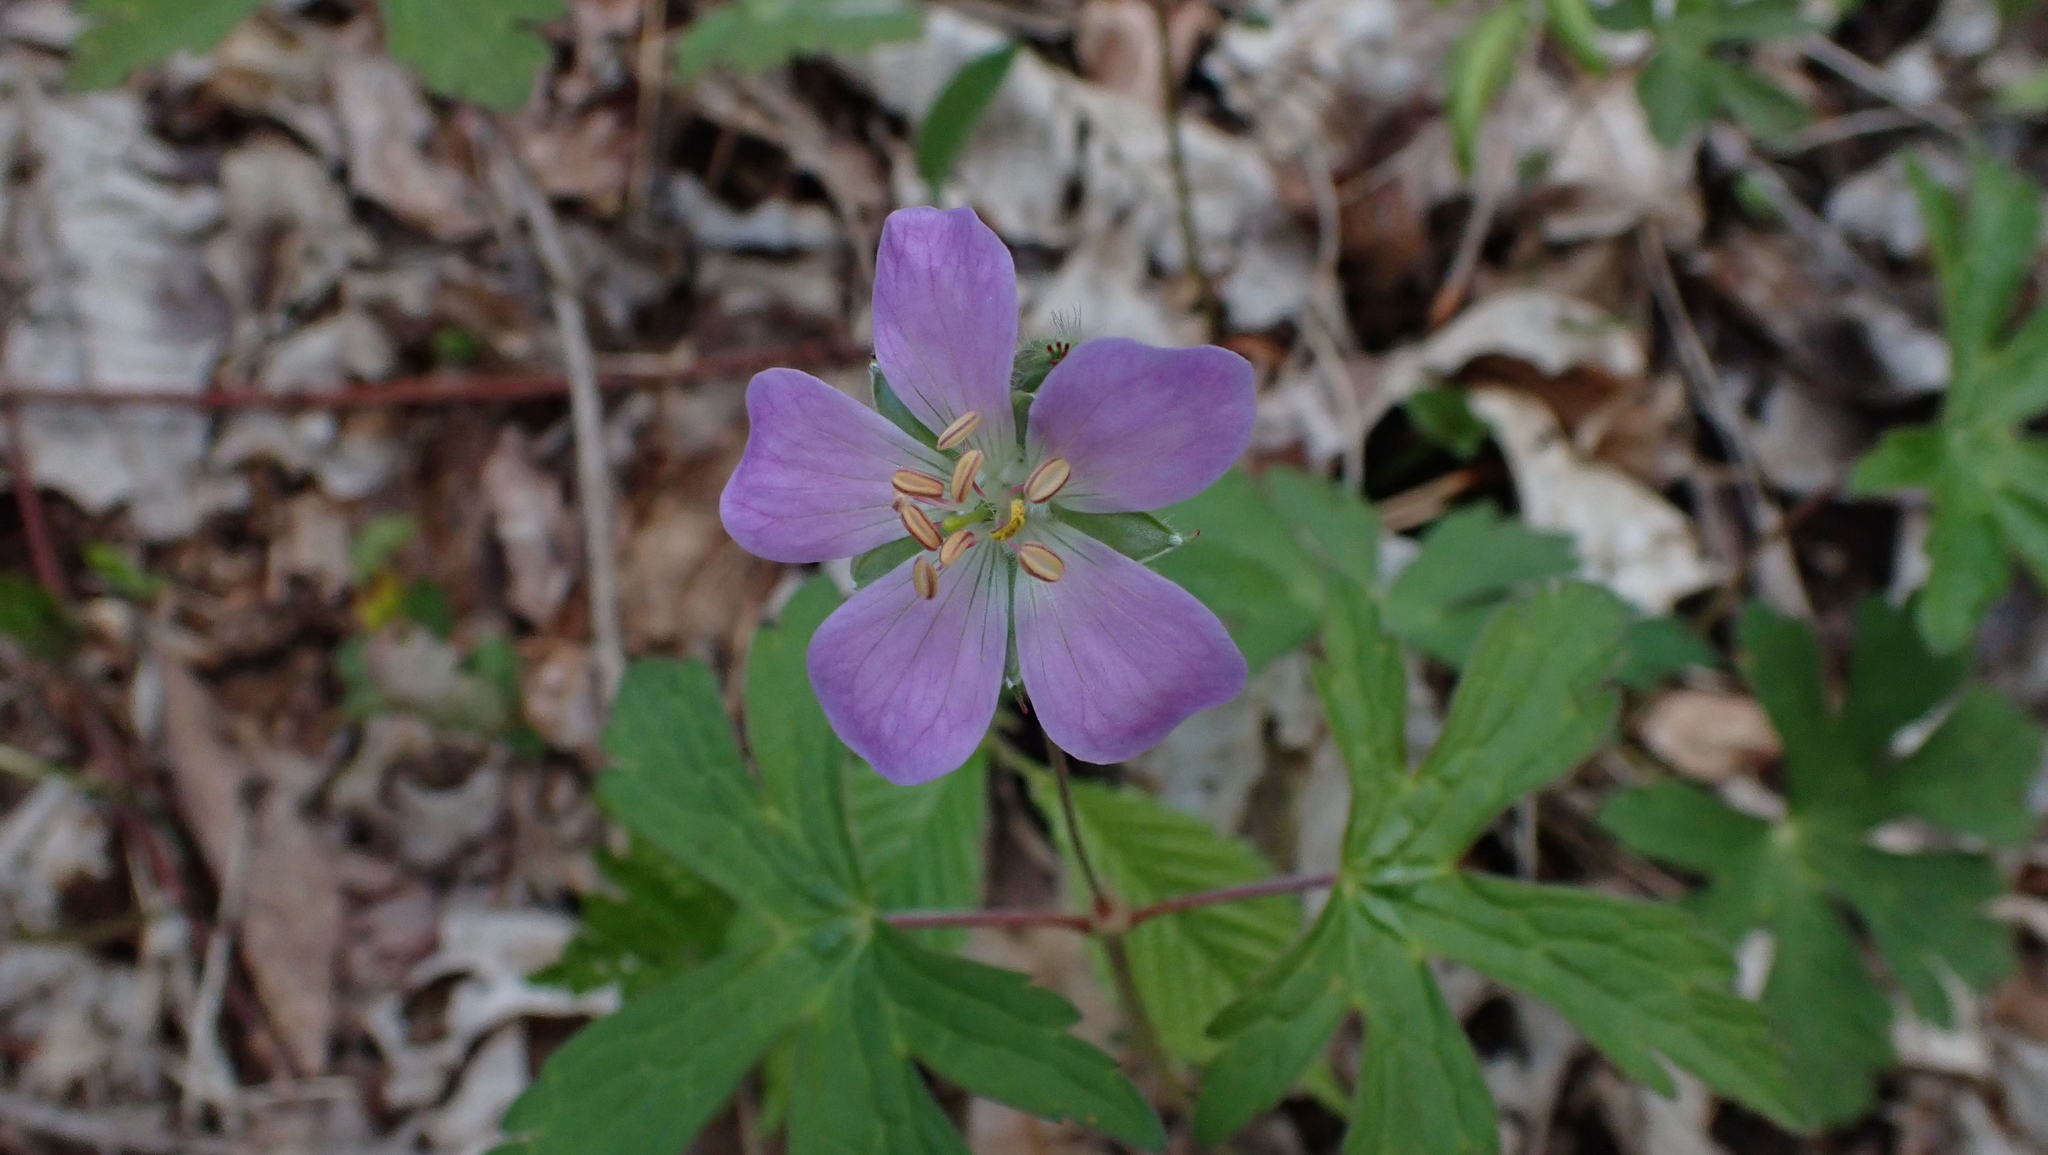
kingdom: Plantae
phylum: Tracheophyta
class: Magnoliopsida
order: Geraniales
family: Geraniaceae
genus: Geranium
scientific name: Geranium maculatum
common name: Spotted geranium
